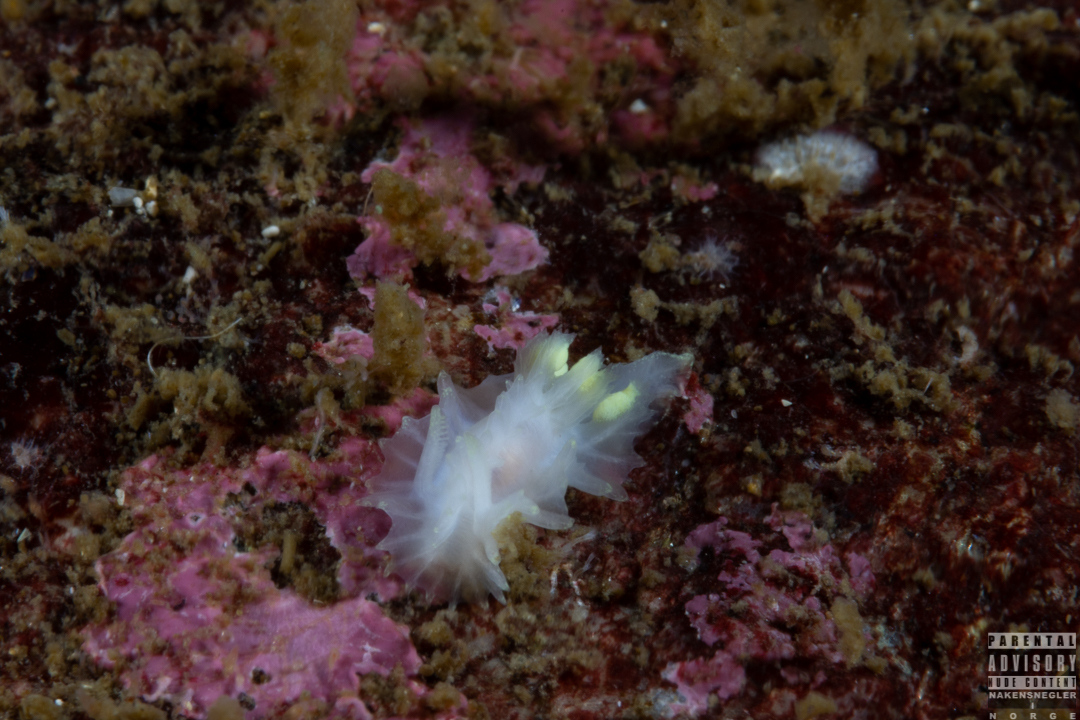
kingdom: Animalia
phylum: Mollusca
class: Gastropoda
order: Nudibranchia
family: Goniodorididae
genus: Lophodoris
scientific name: Lophodoris danielsseni
